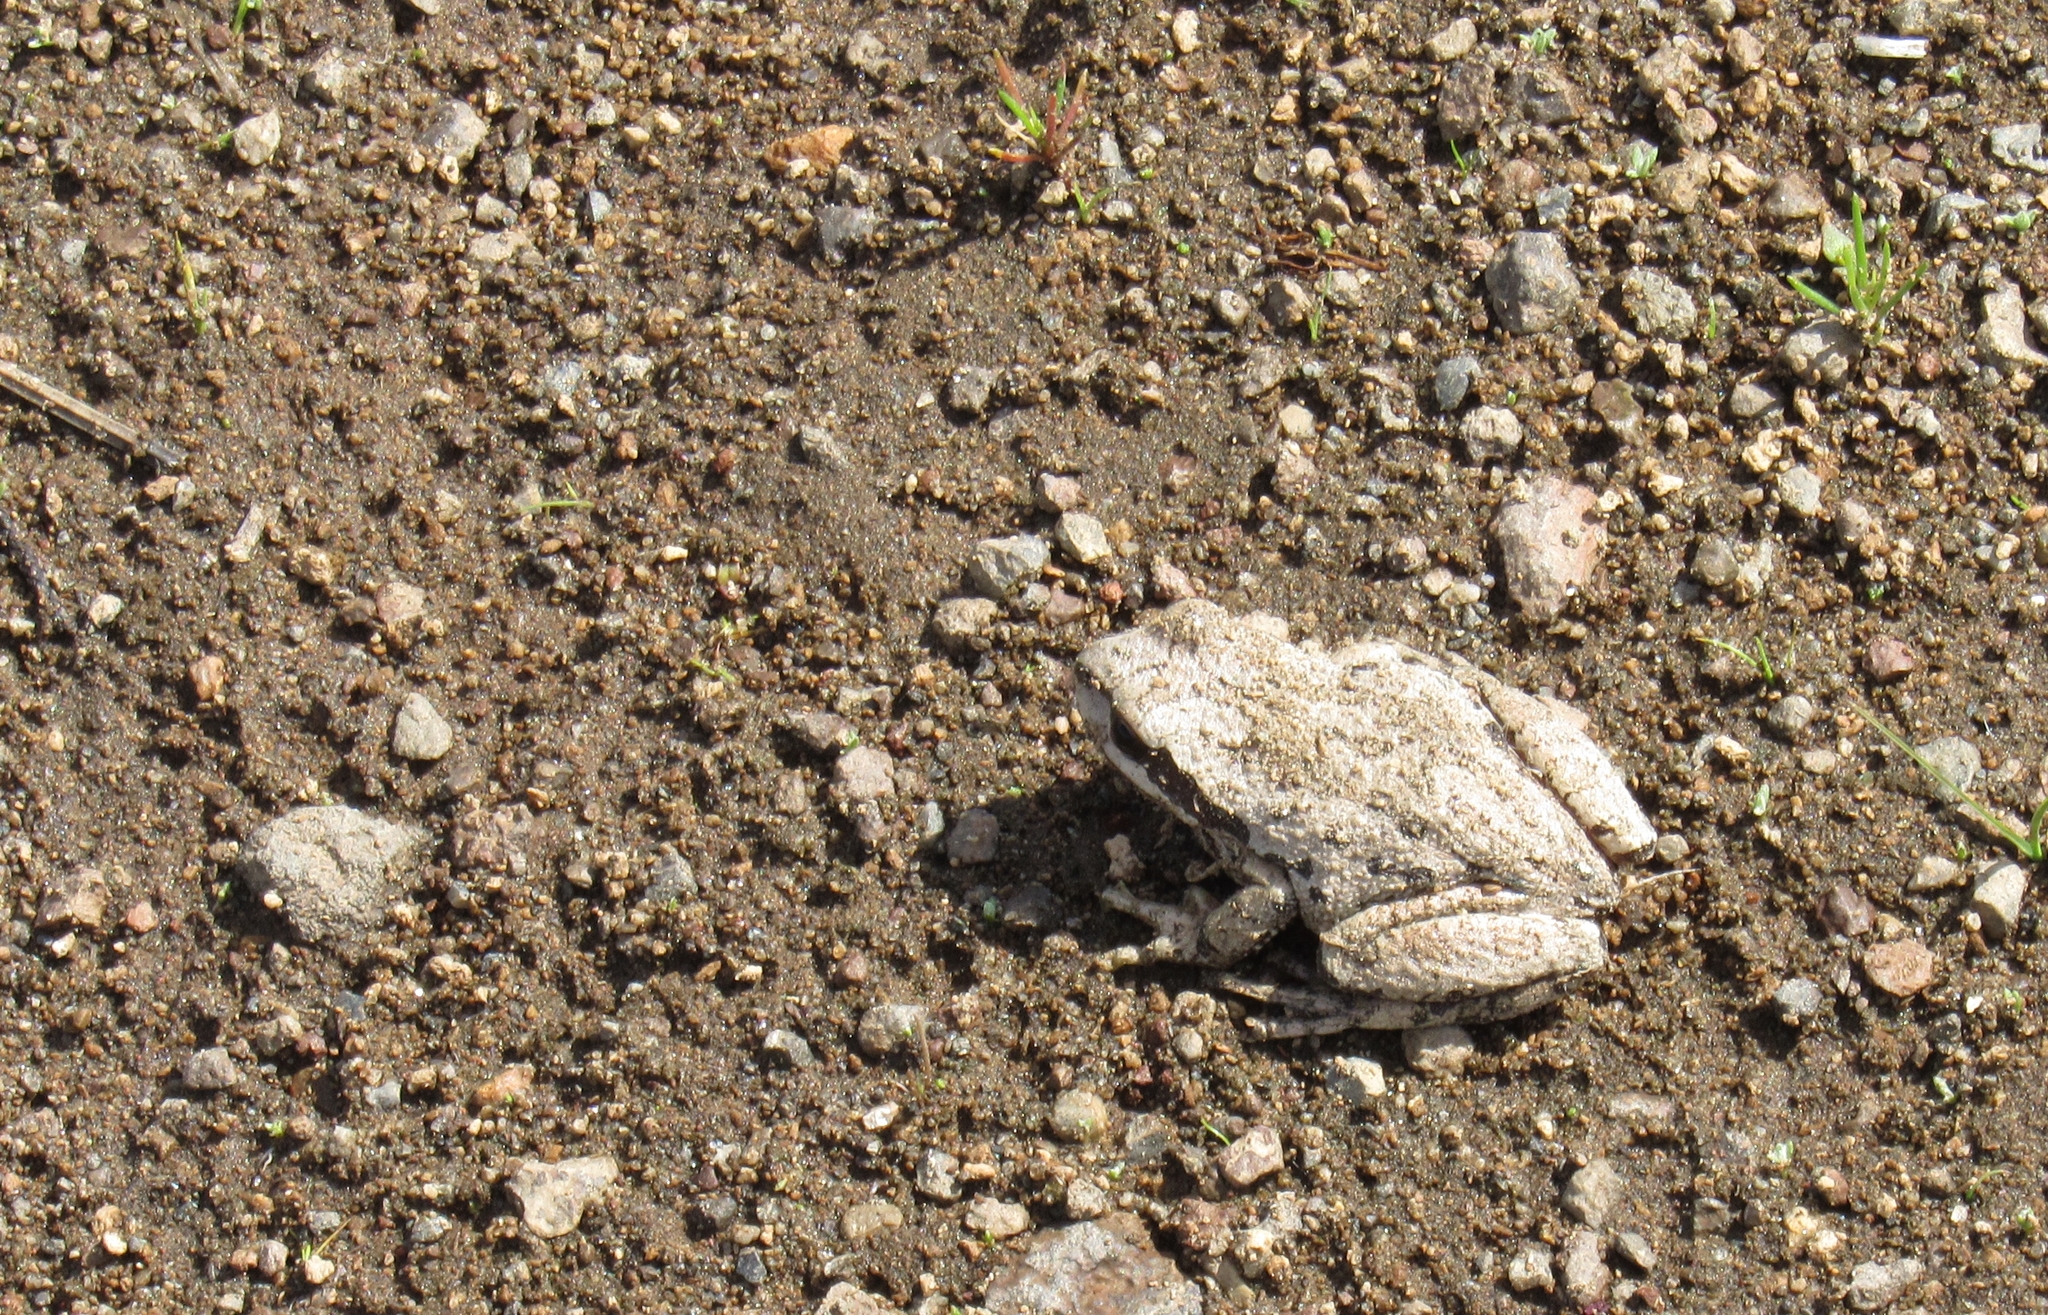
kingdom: Animalia
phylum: Chordata
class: Amphibia
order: Anura
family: Hylidae
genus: Pseudacris
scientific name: Pseudacris regilla
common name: Pacific chorus frog
